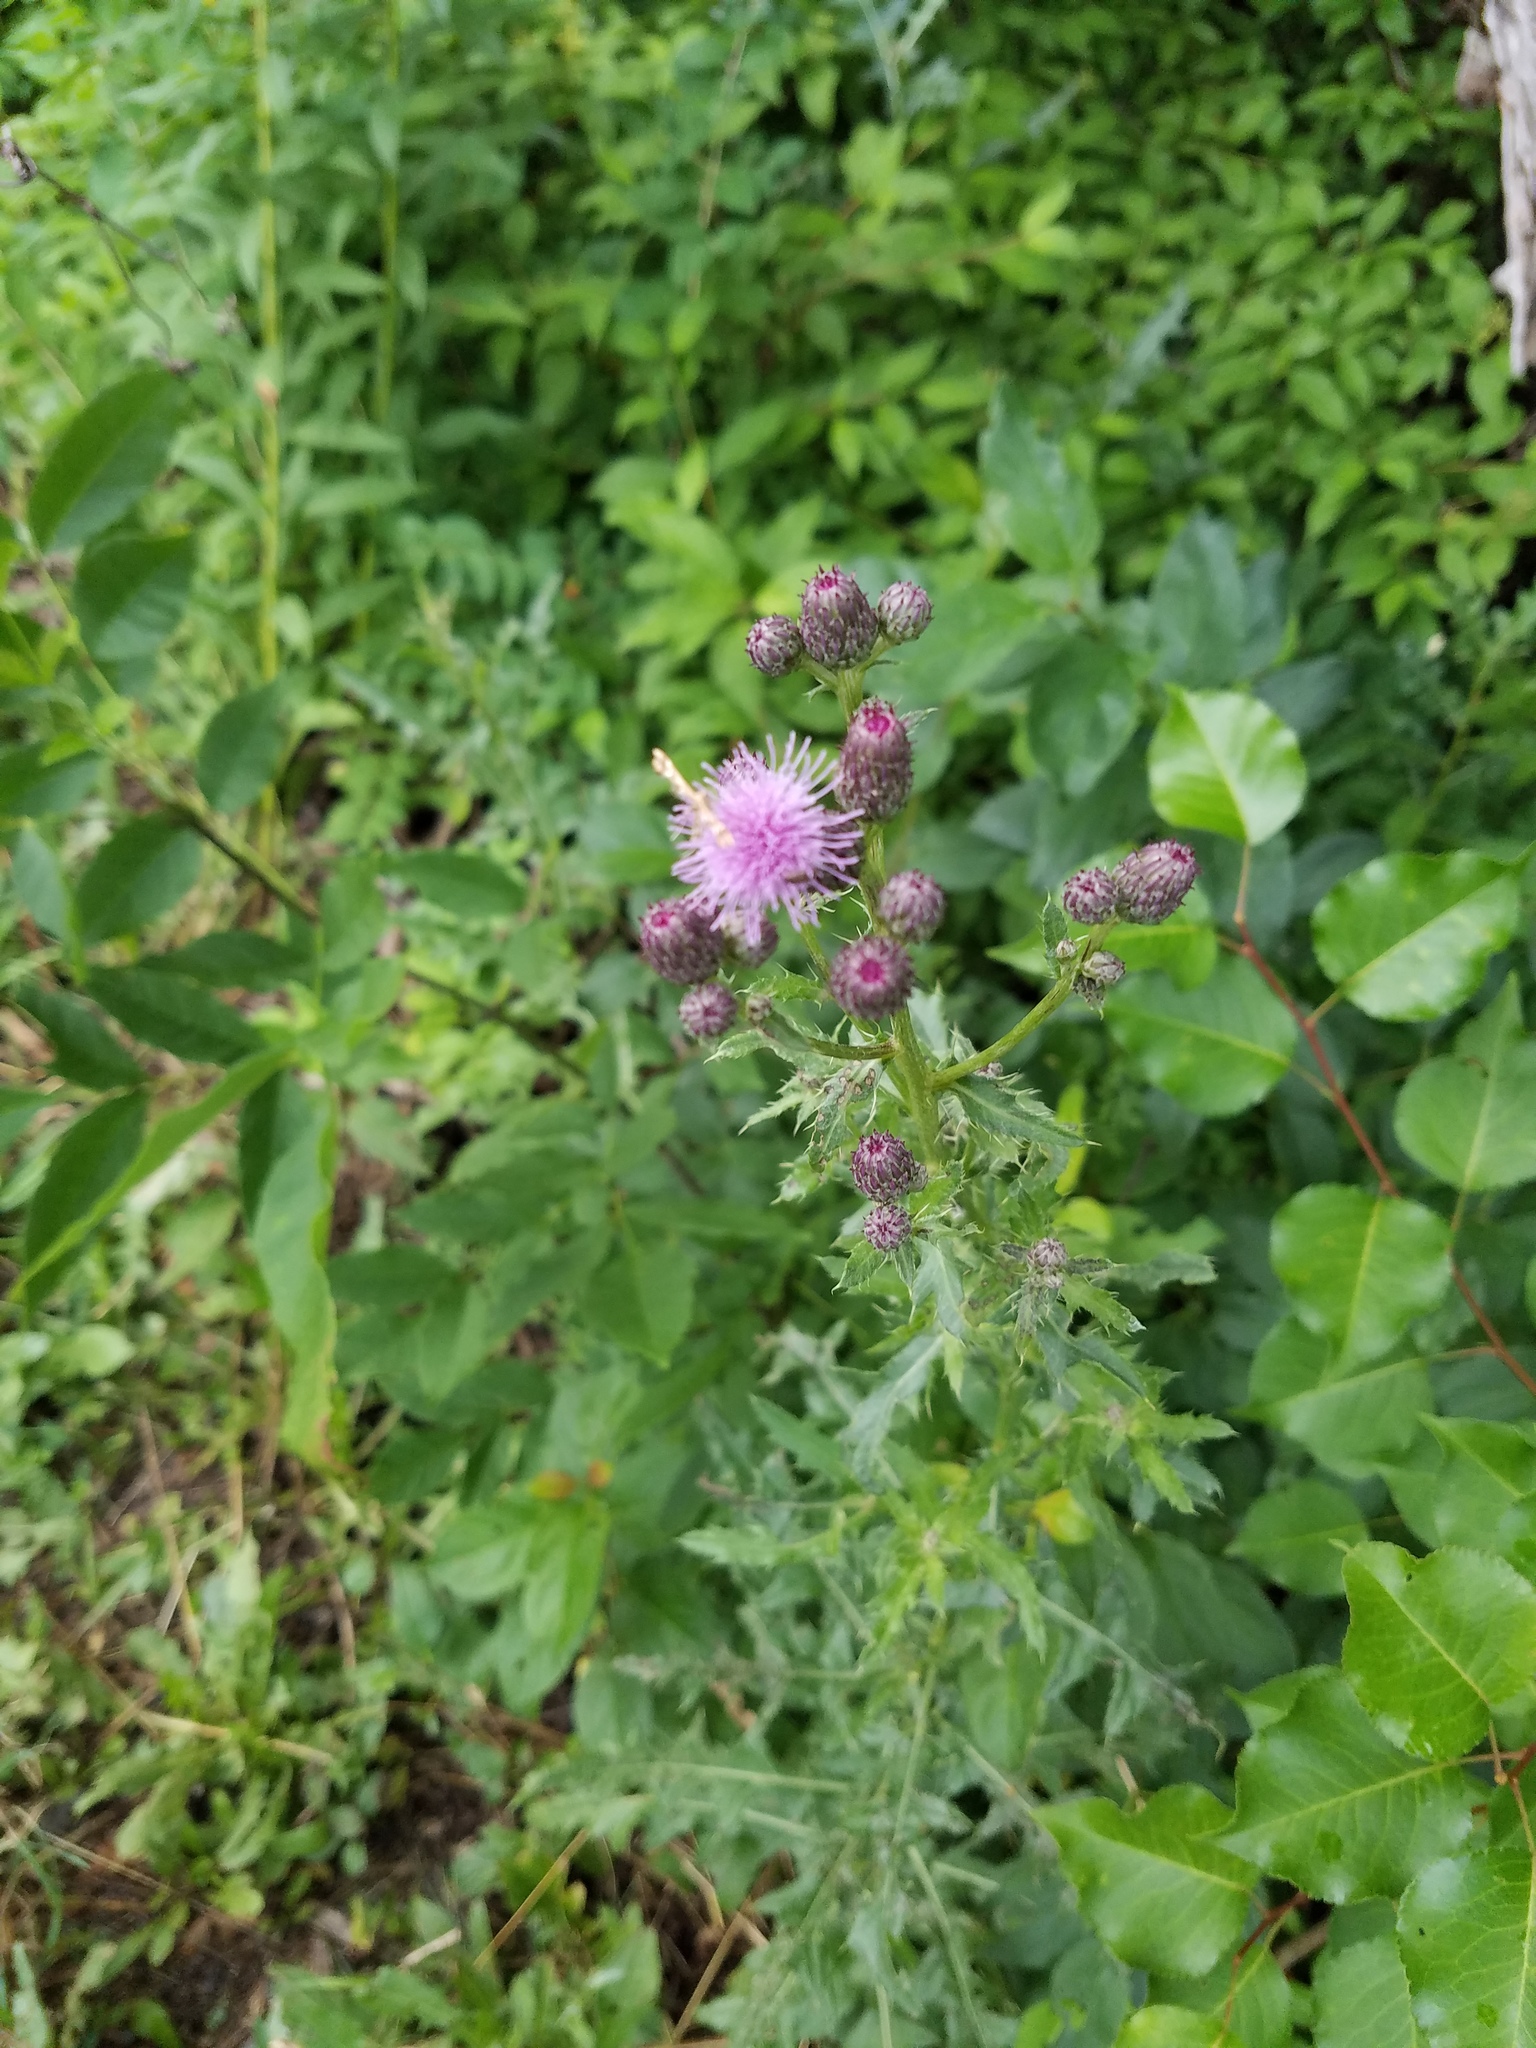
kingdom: Plantae
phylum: Tracheophyta
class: Magnoliopsida
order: Asterales
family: Asteraceae
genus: Cirsium
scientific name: Cirsium arvense
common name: Creeping thistle
